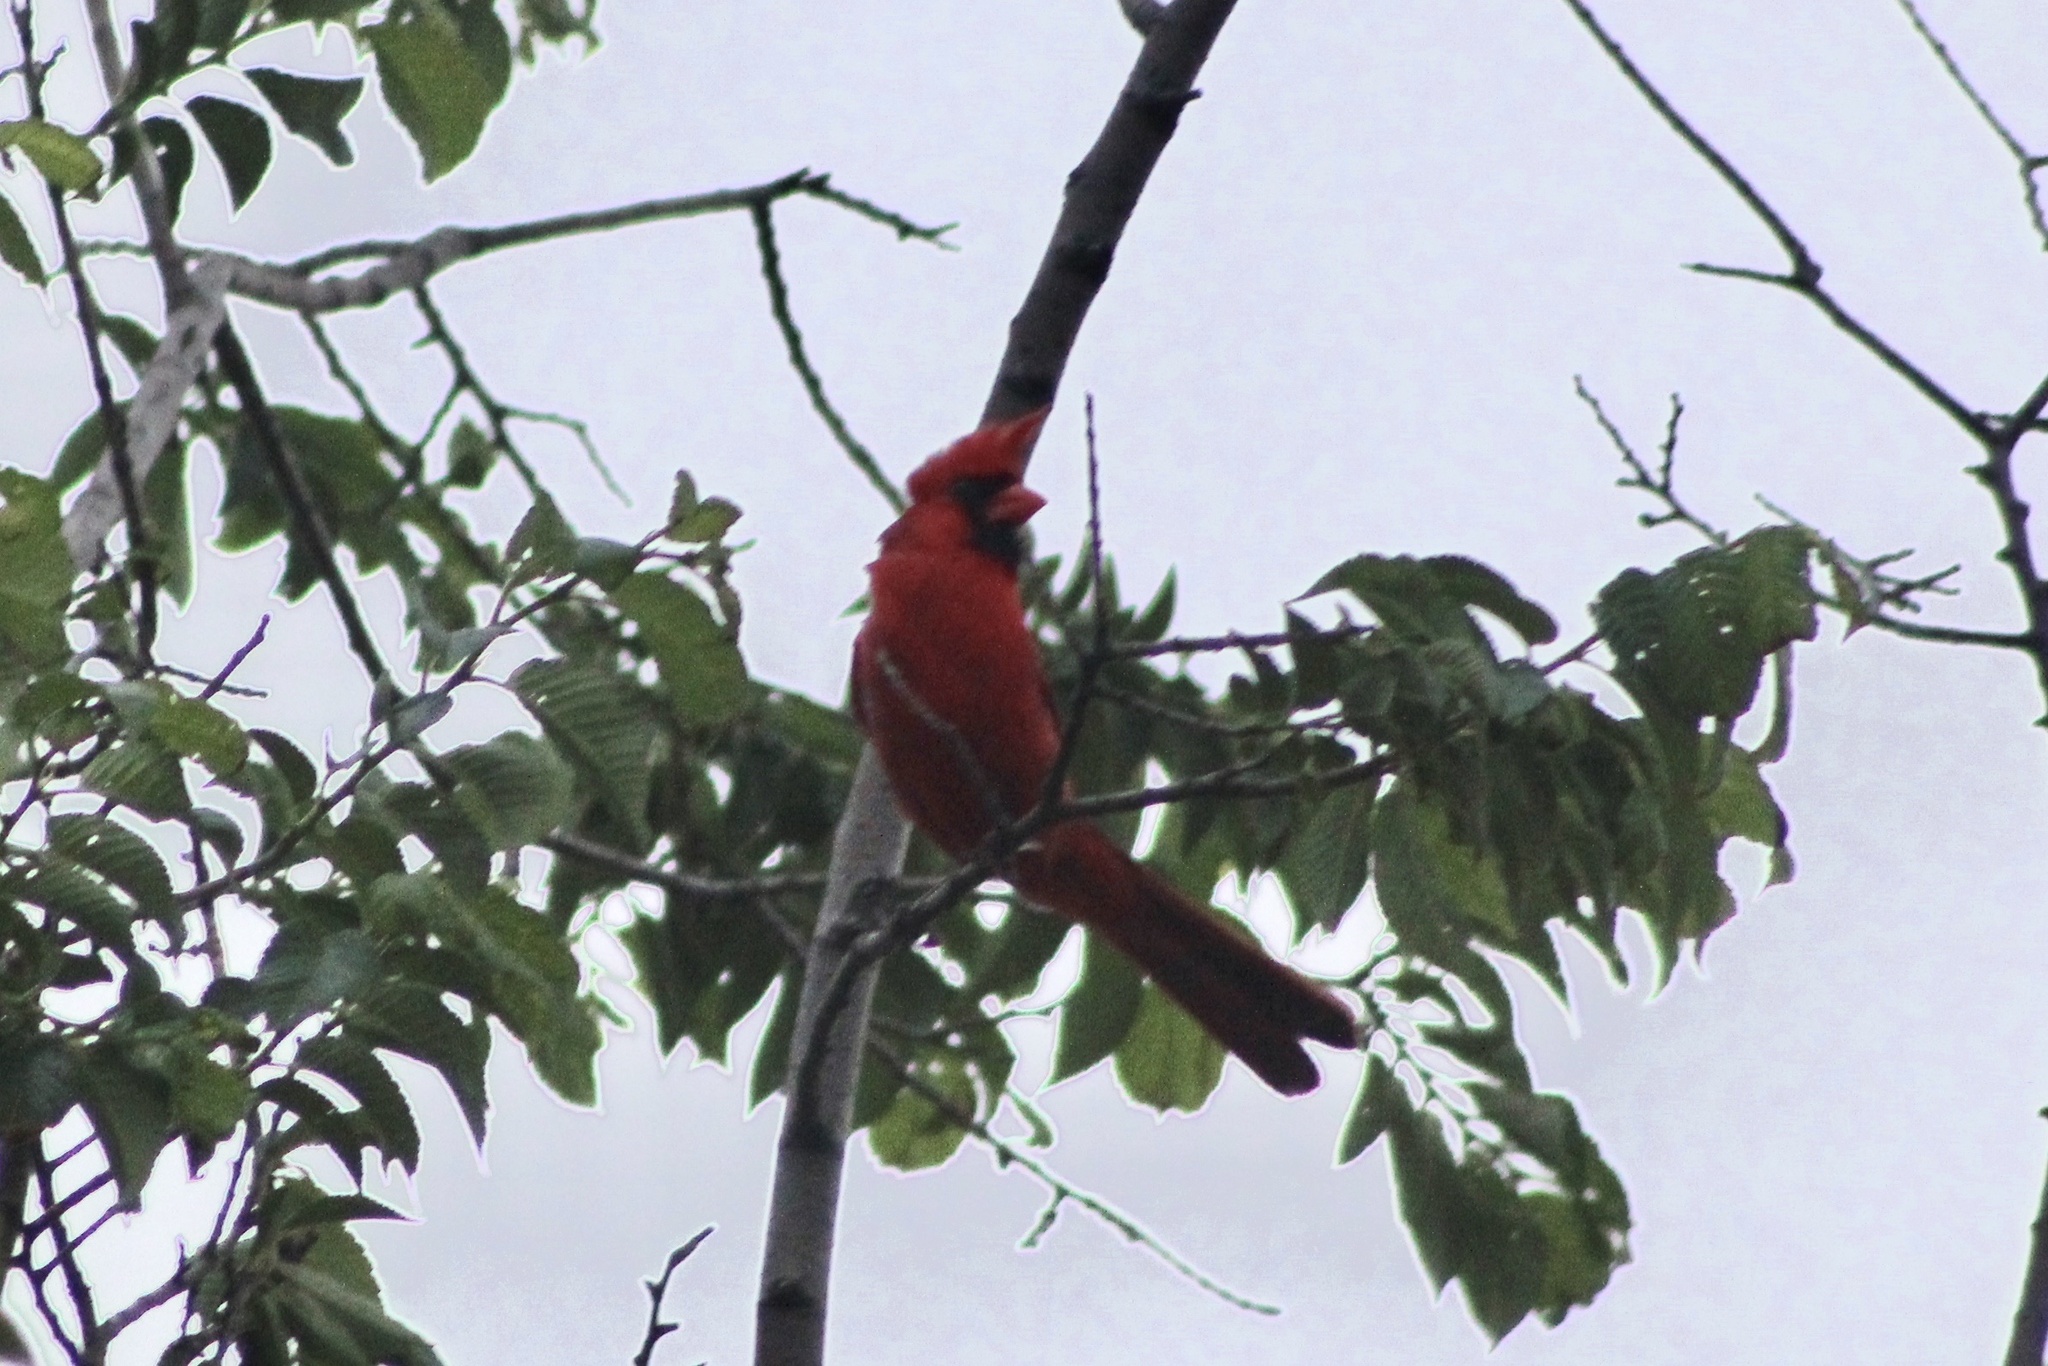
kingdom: Animalia
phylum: Chordata
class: Aves
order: Passeriformes
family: Cardinalidae
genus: Cardinalis
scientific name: Cardinalis cardinalis
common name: Northern cardinal
